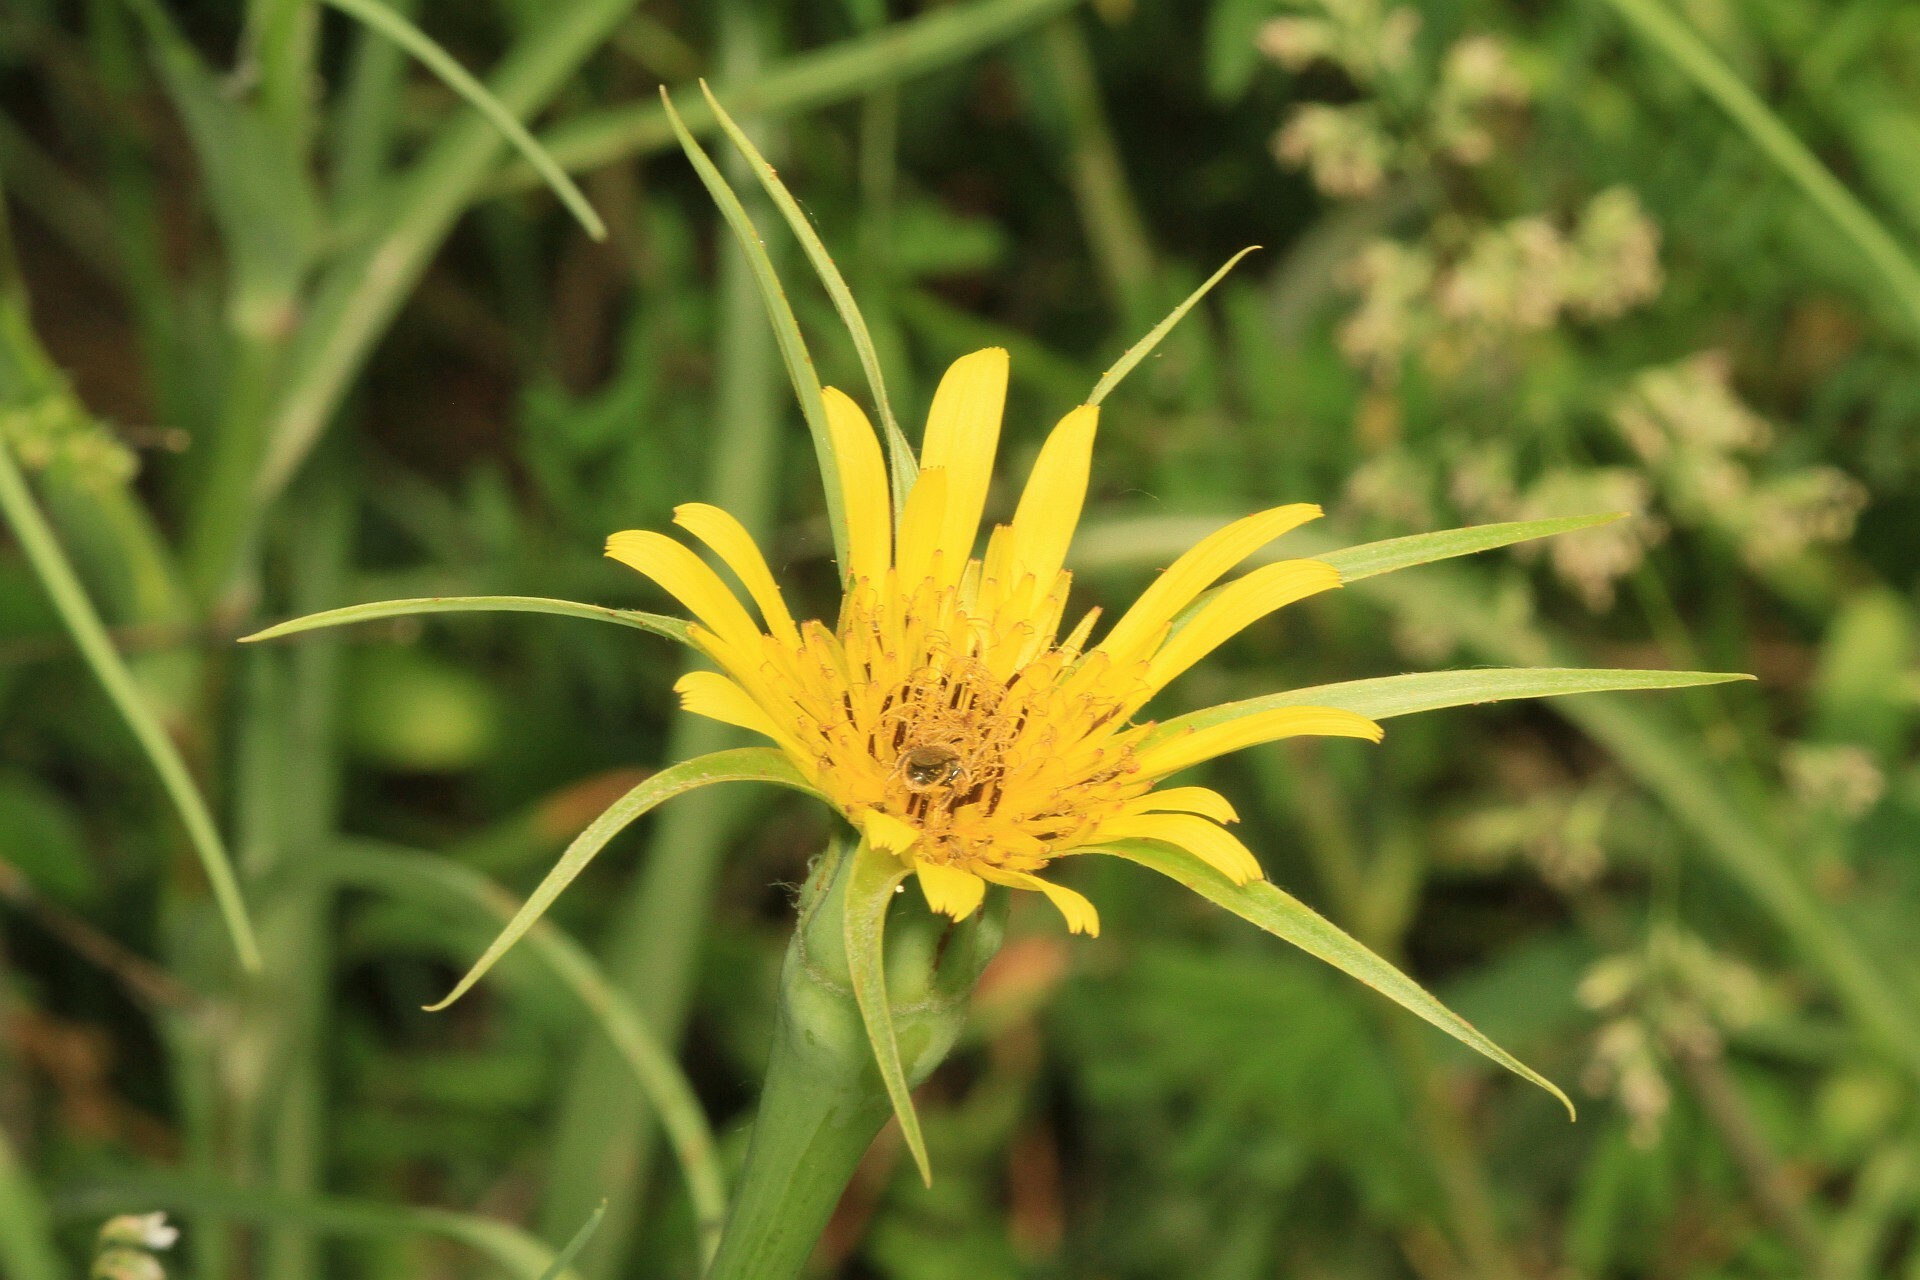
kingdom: Plantae
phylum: Tracheophyta
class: Magnoliopsida
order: Asterales
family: Asteraceae
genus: Tragopogon
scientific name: Tragopogon dubius
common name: Yellow salsify
